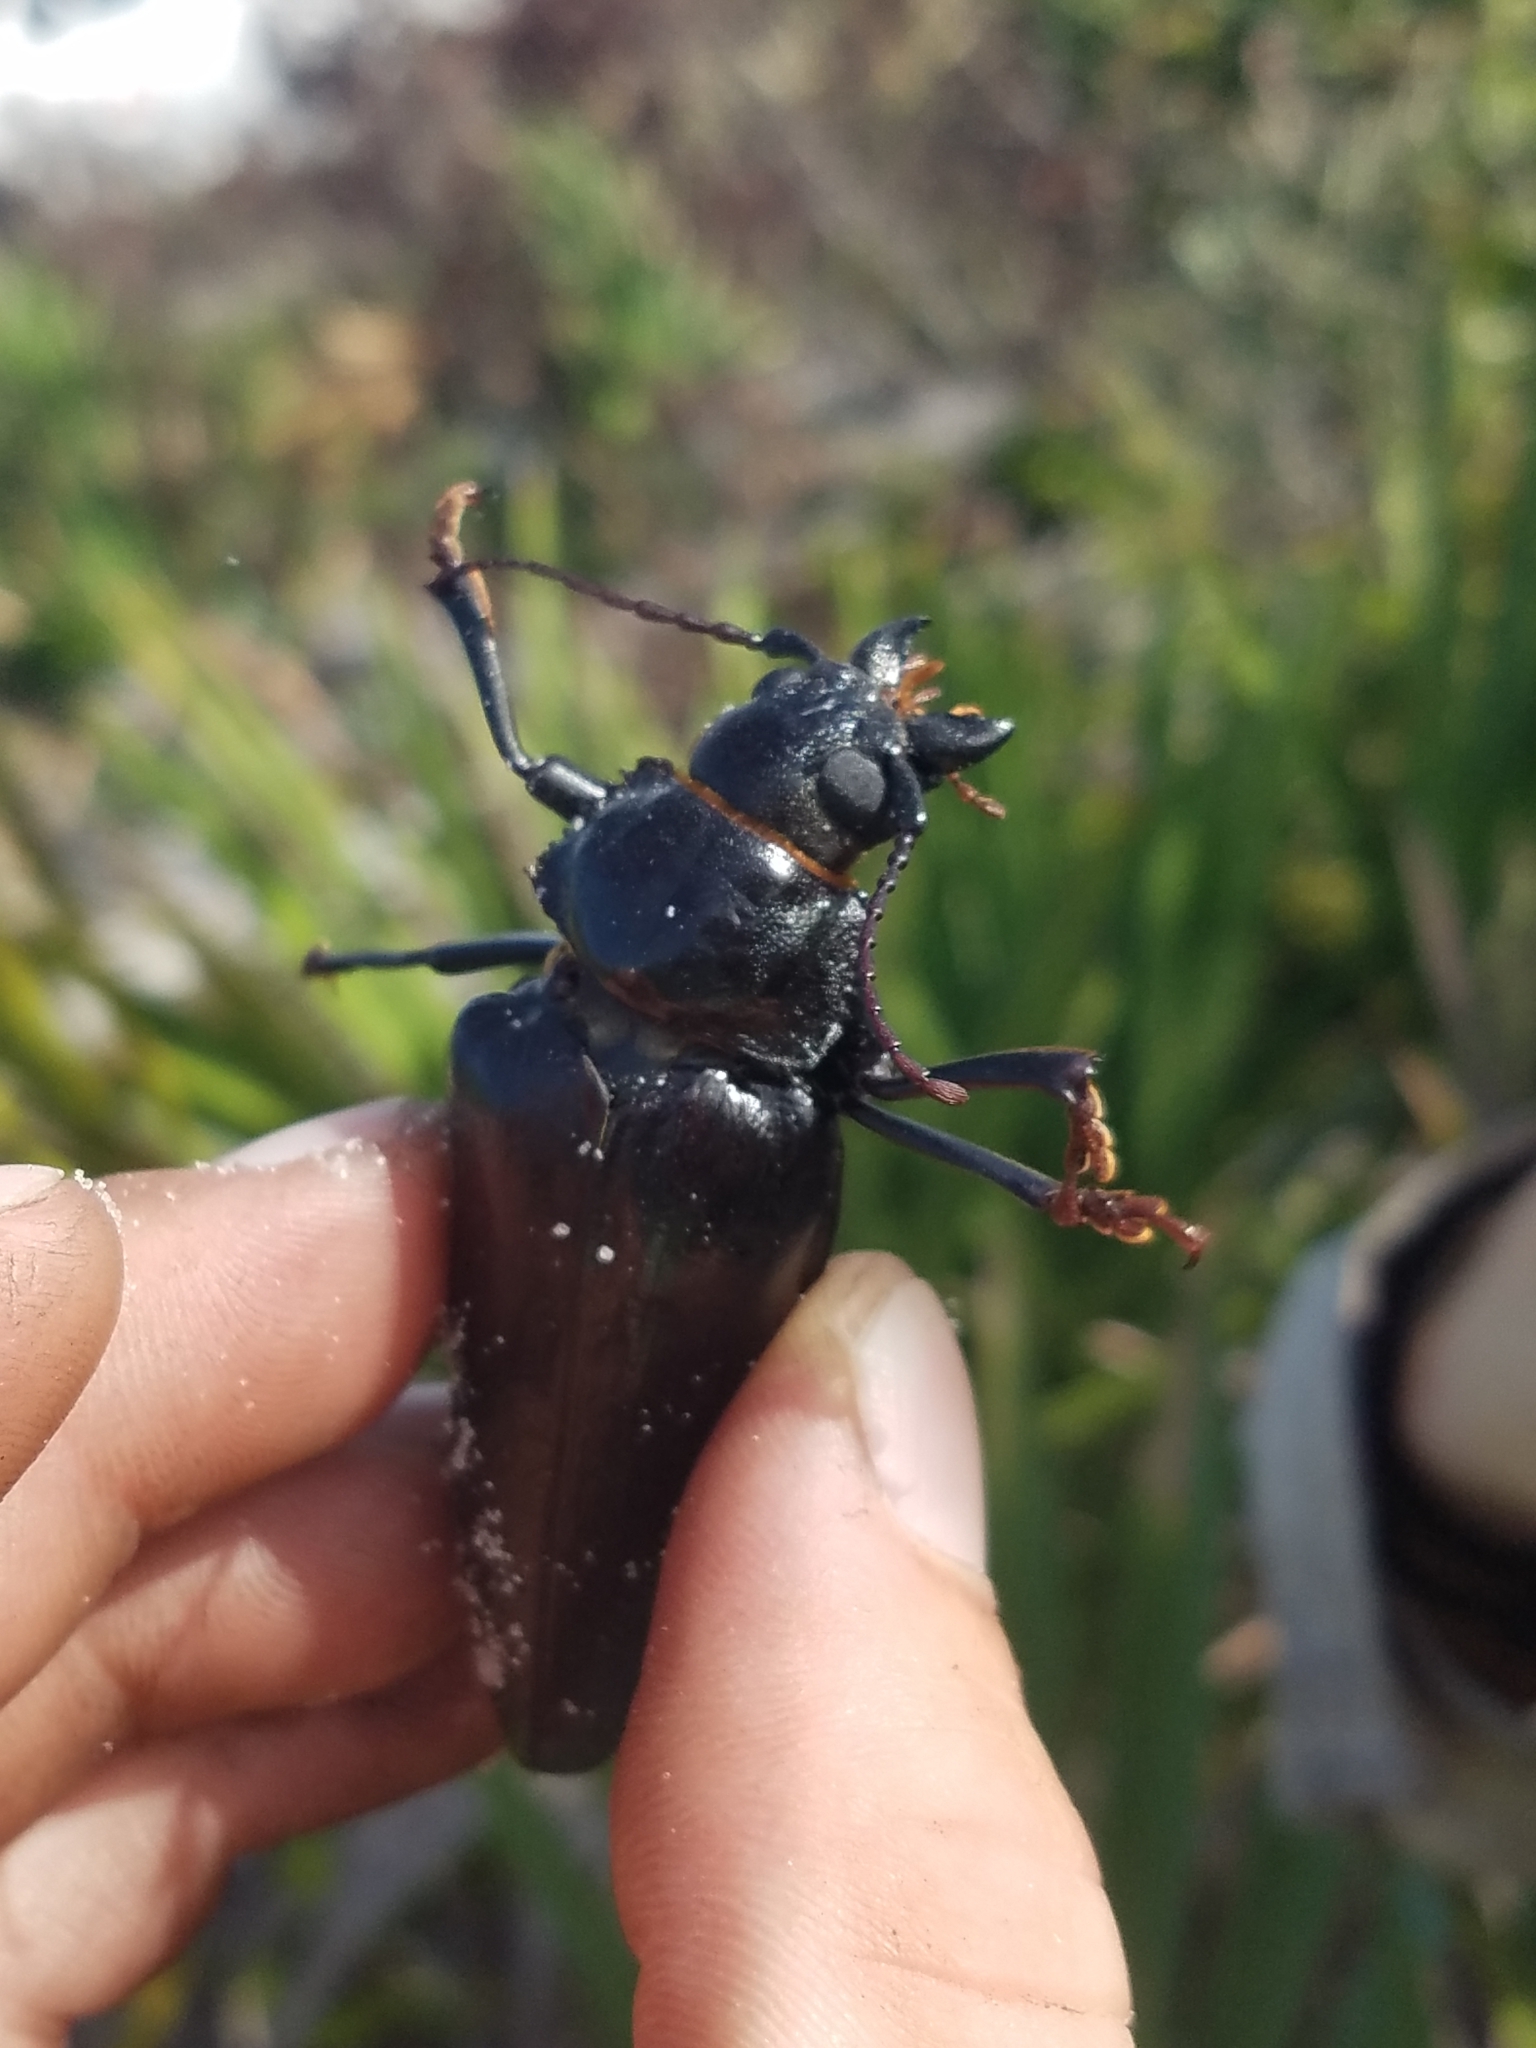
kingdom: Animalia
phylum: Arthropoda
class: Insecta
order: Coleoptera
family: Cerambycidae
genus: Archodontes
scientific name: Archodontes melanopus
